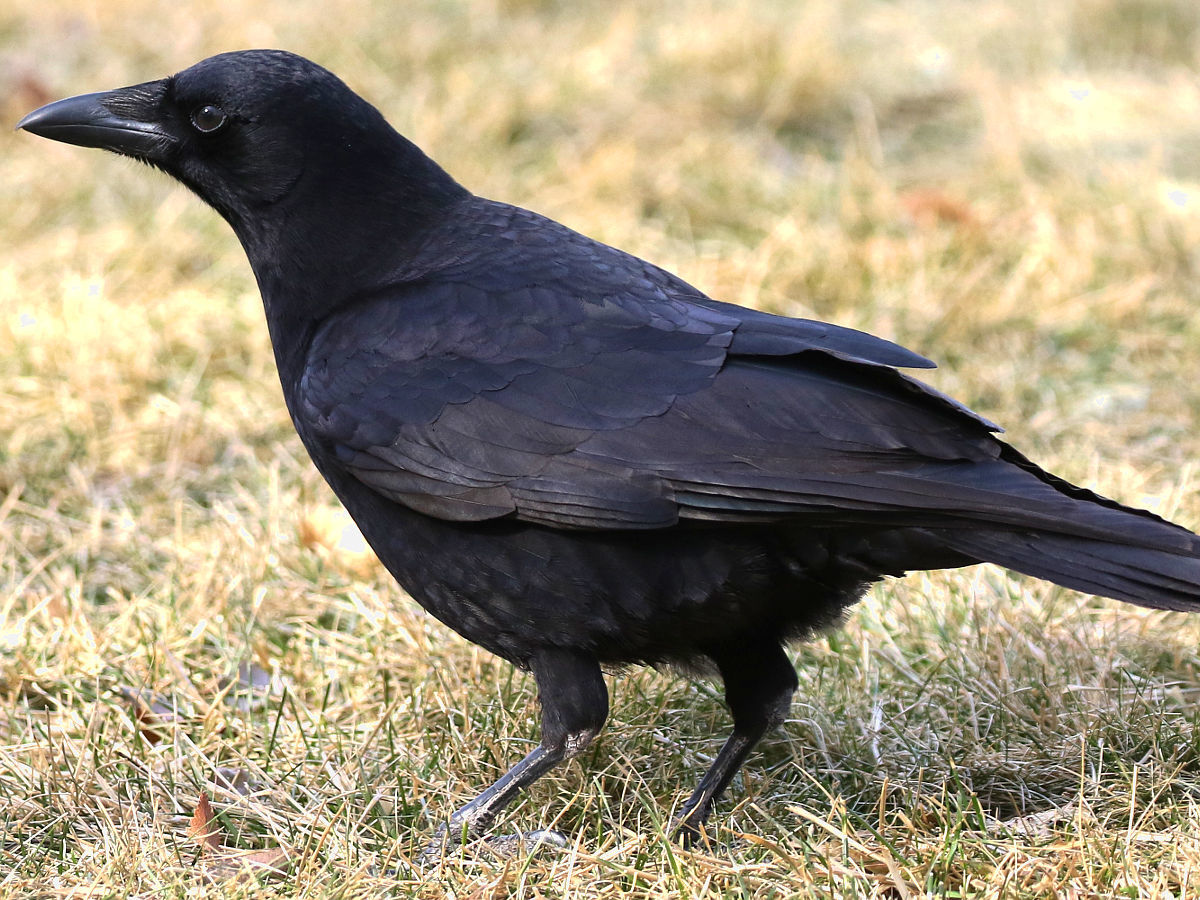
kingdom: Animalia
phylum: Chordata
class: Aves
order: Passeriformes
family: Corvidae
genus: Corvus
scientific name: Corvus brachyrhynchos
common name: American crow
